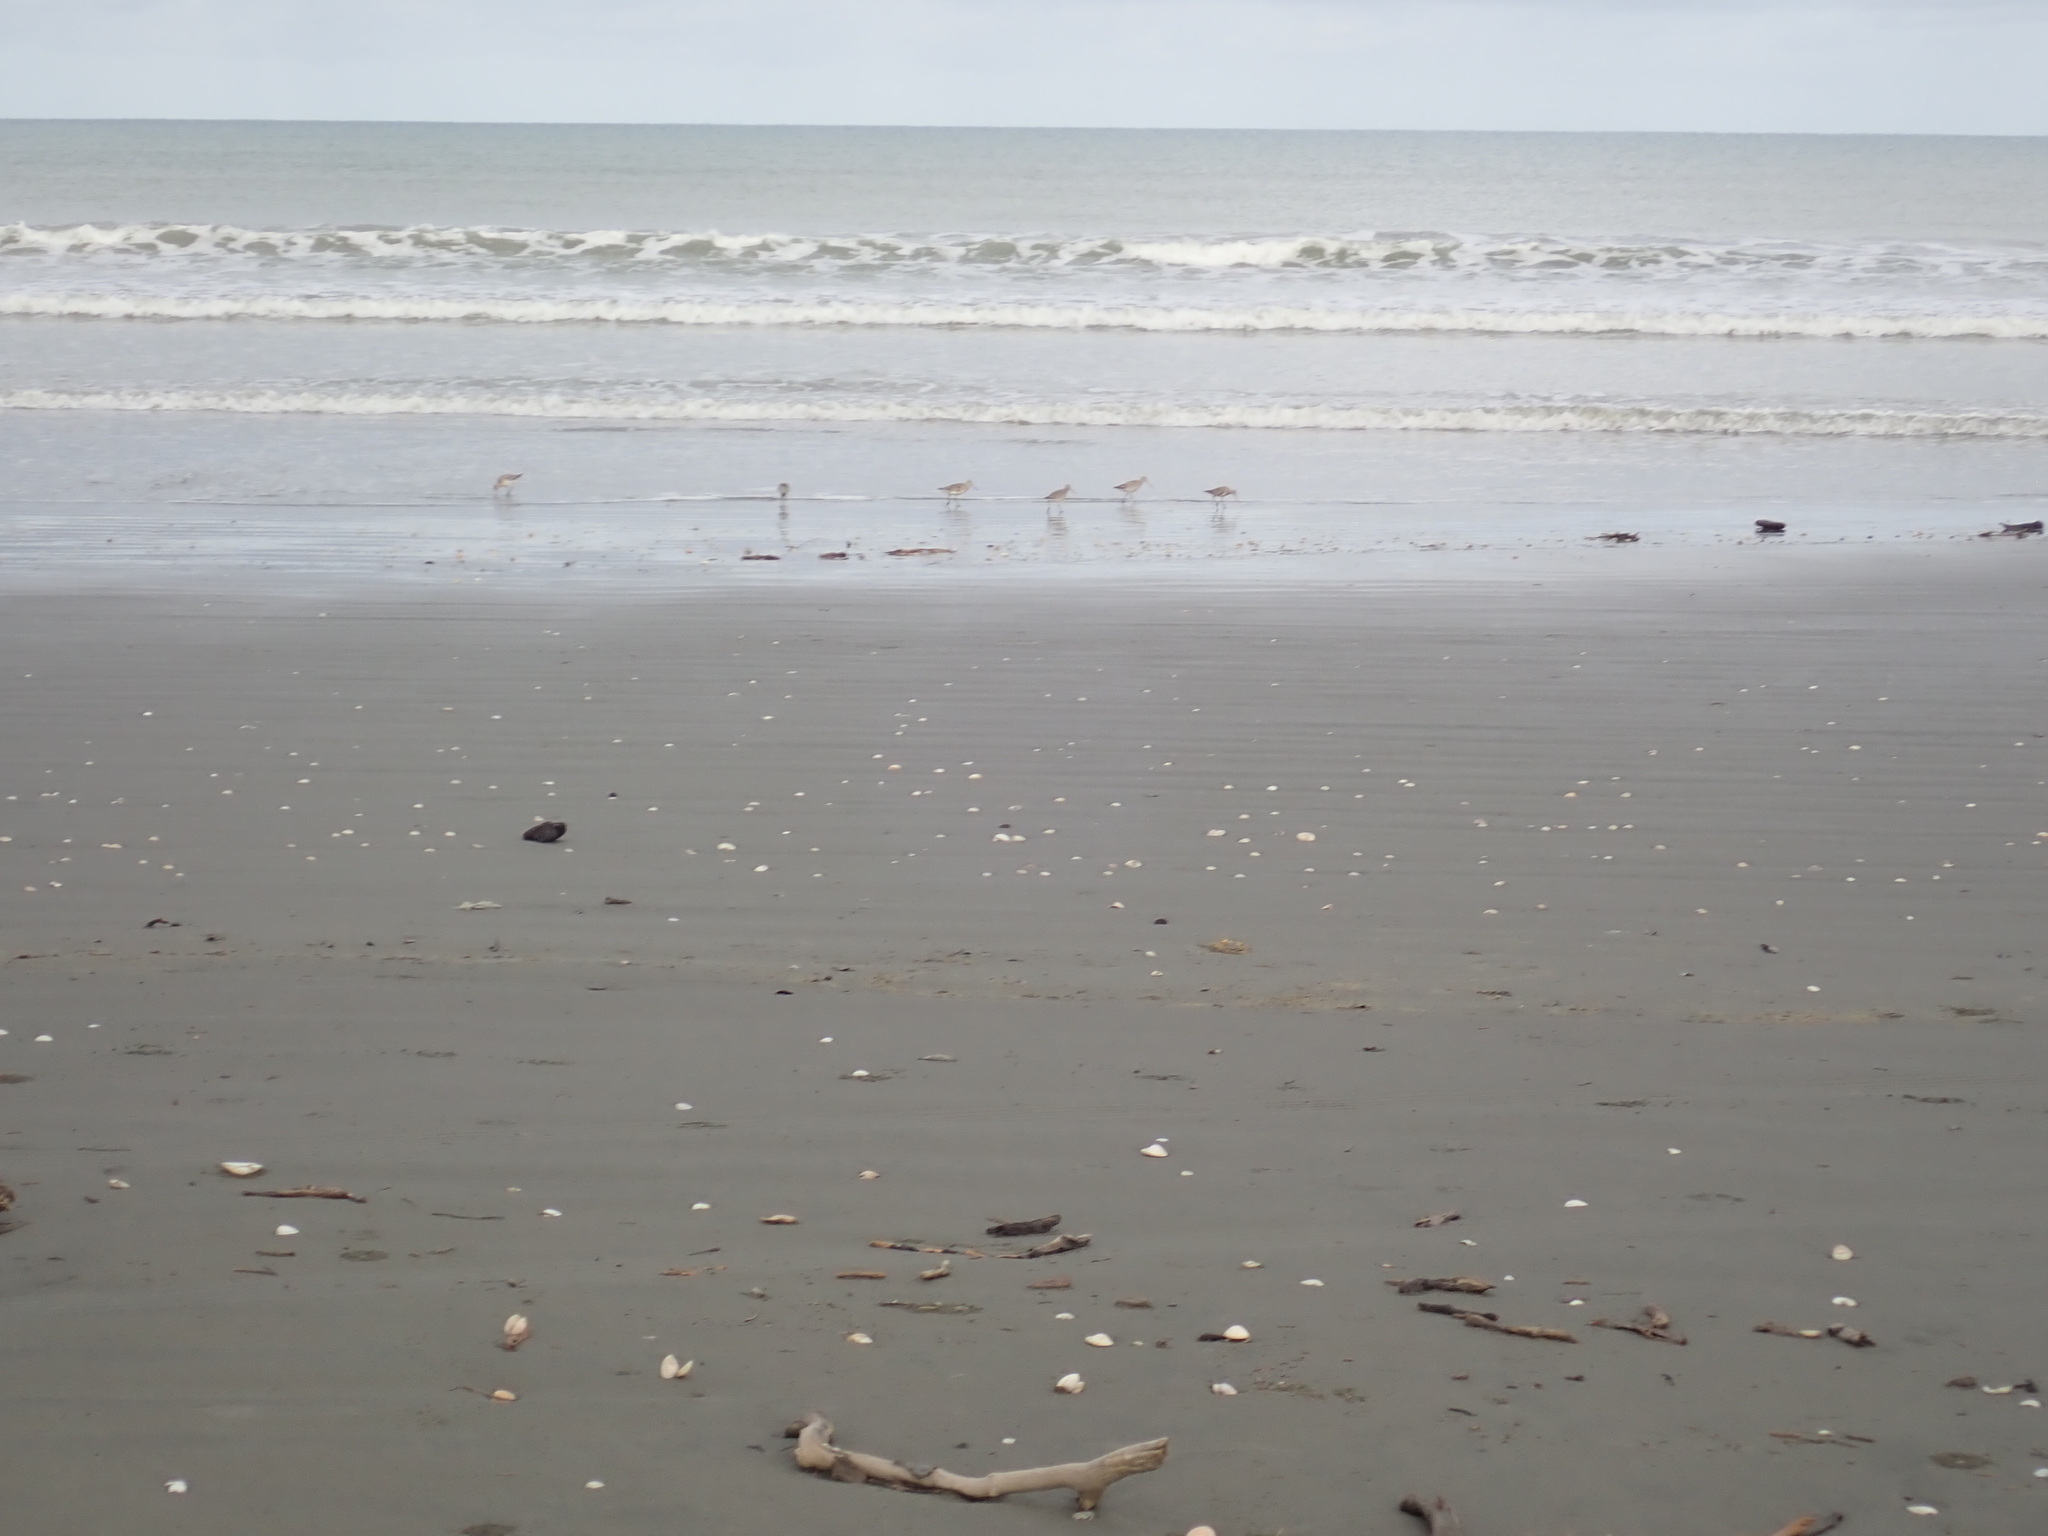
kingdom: Animalia
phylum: Chordata
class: Aves
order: Charadriiformes
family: Scolopacidae
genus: Limosa
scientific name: Limosa lapponica
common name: Bar-tailed godwit
